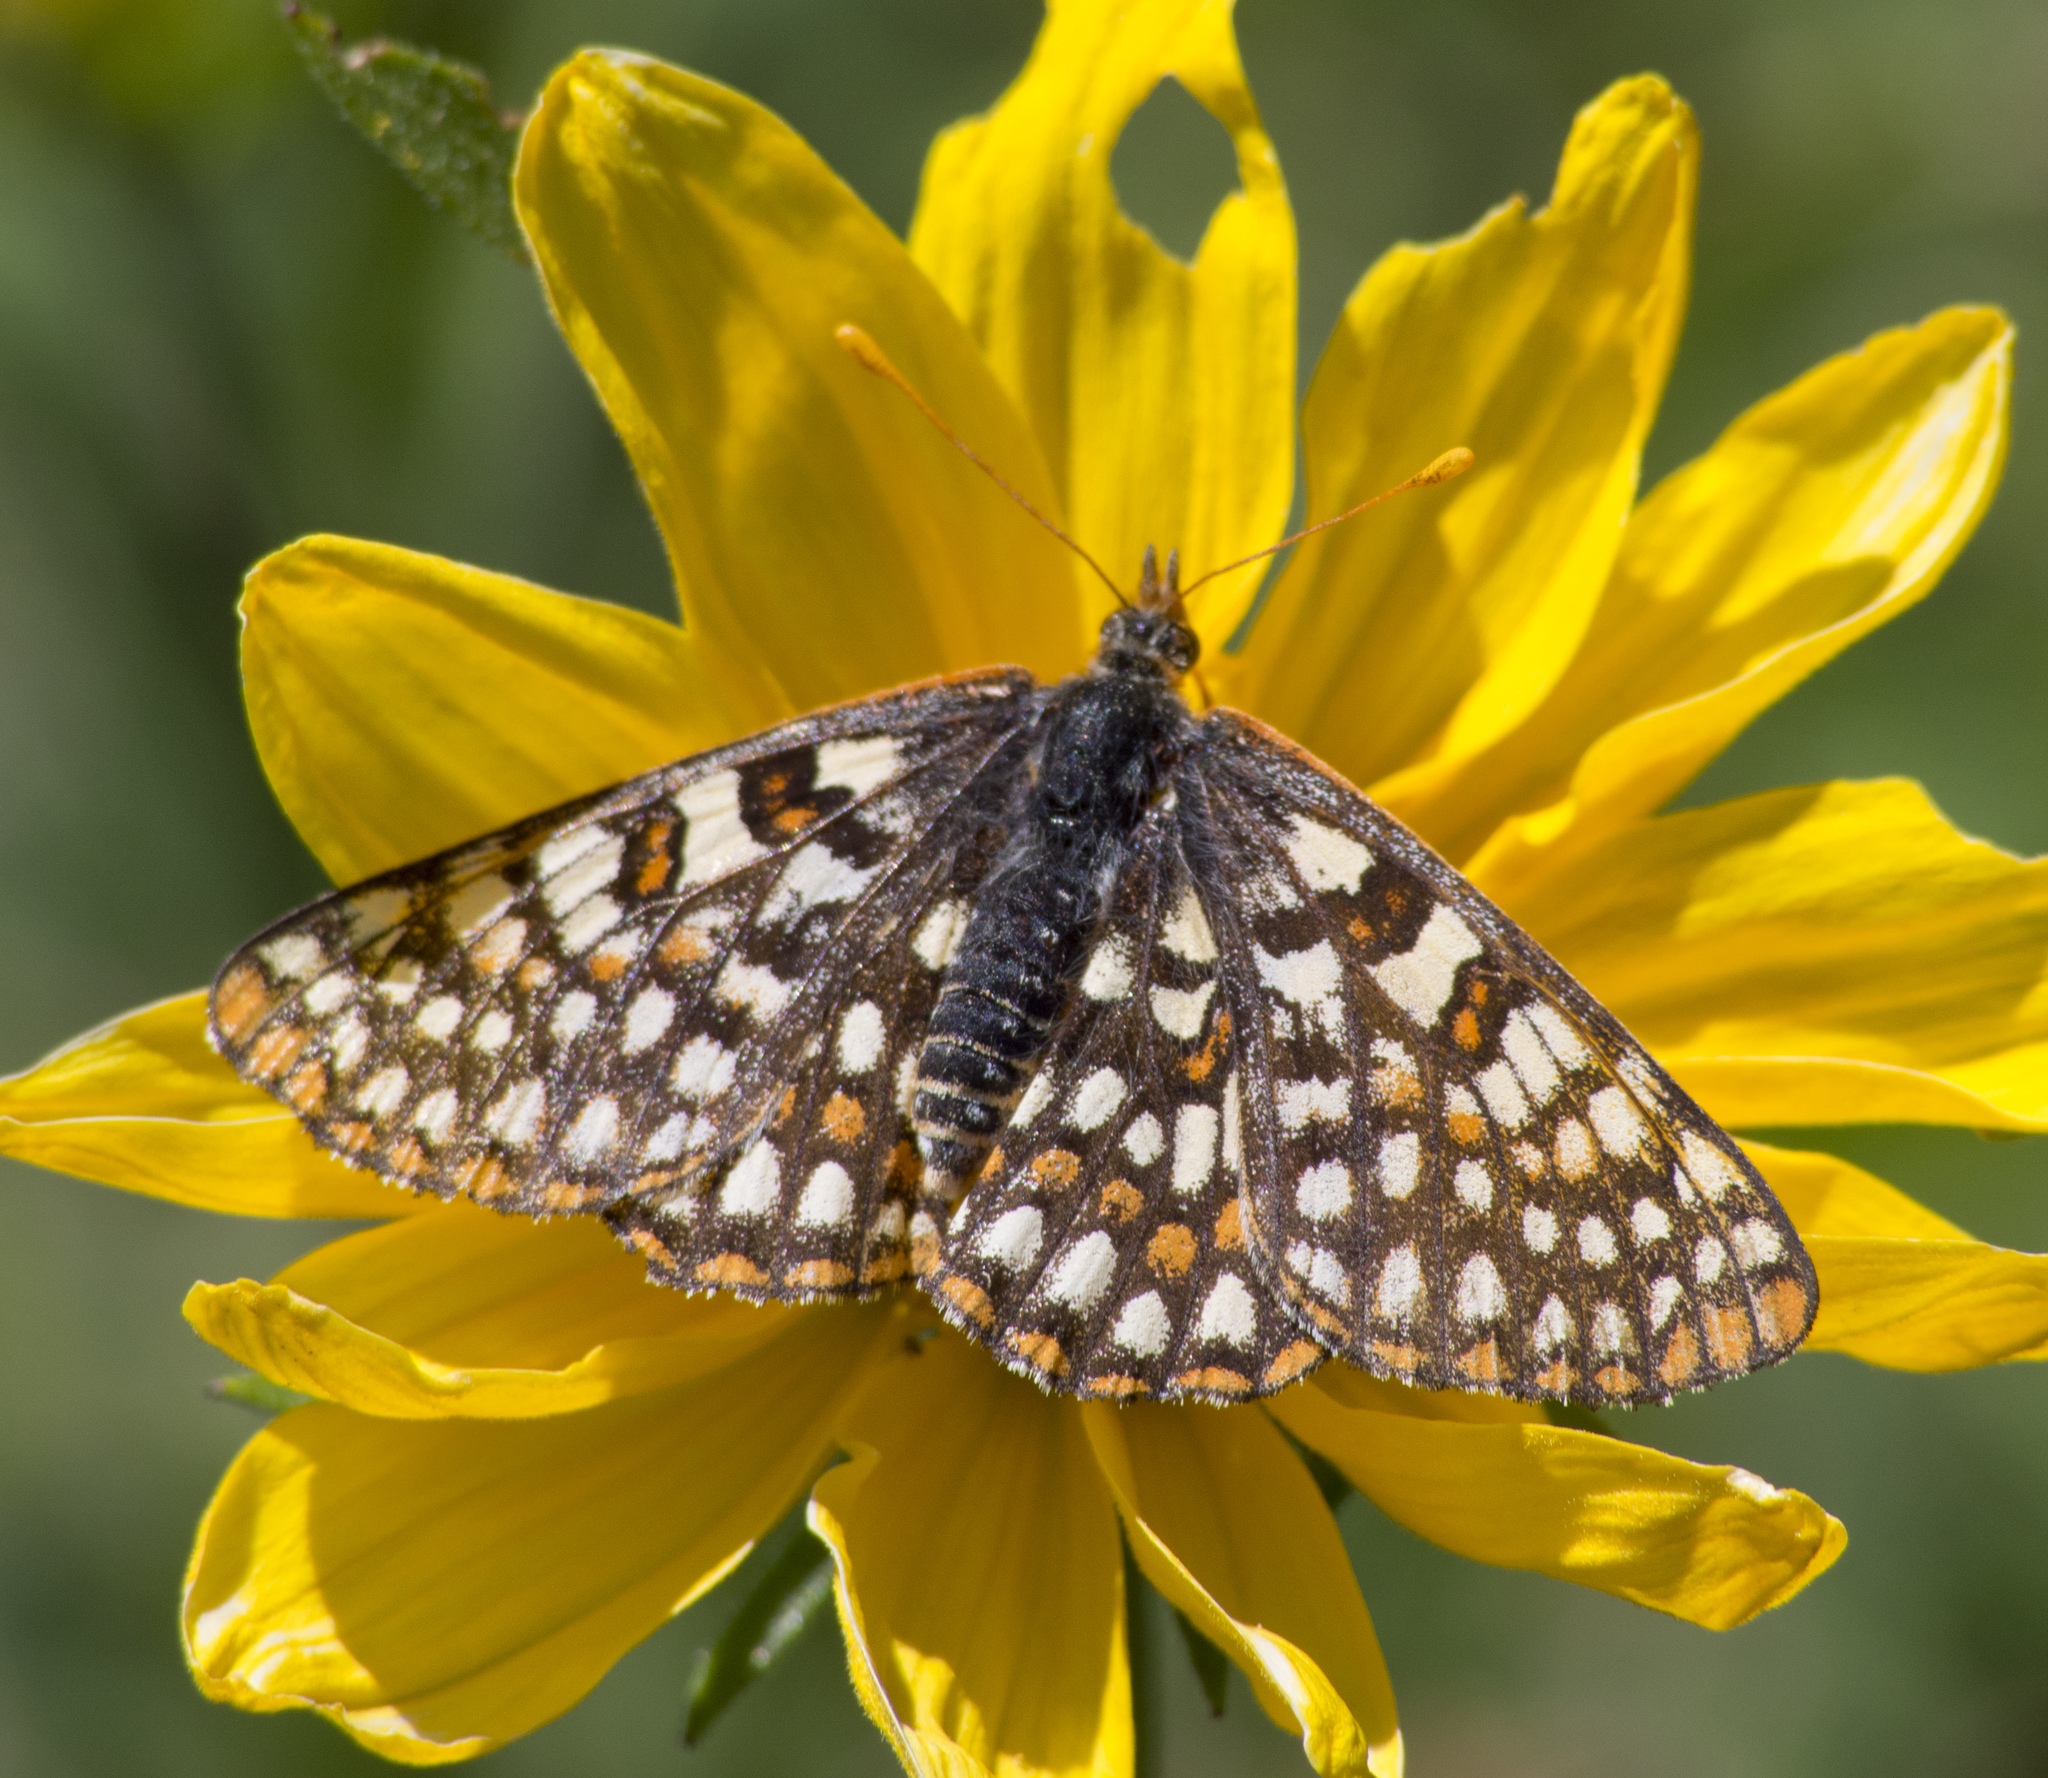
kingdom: Animalia
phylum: Arthropoda
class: Insecta
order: Lepidoptera
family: Nymphalidae
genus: Occidryas
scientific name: Occidryas anicia
